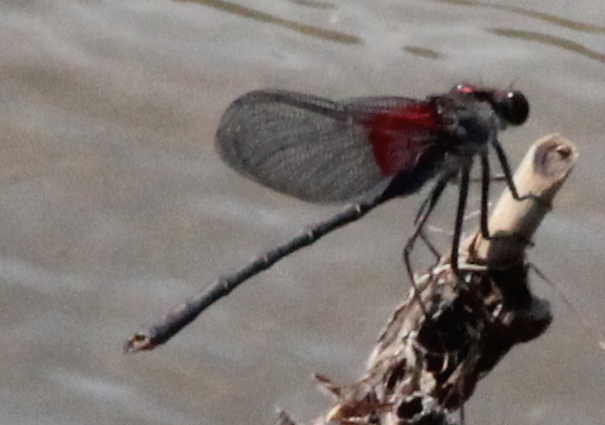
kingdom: Animalia
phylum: Arthropoda
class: Insecta
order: Odonata
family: Calopterygidae
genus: Hetaerina
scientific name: Hetaerina americana
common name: American rubyspot
